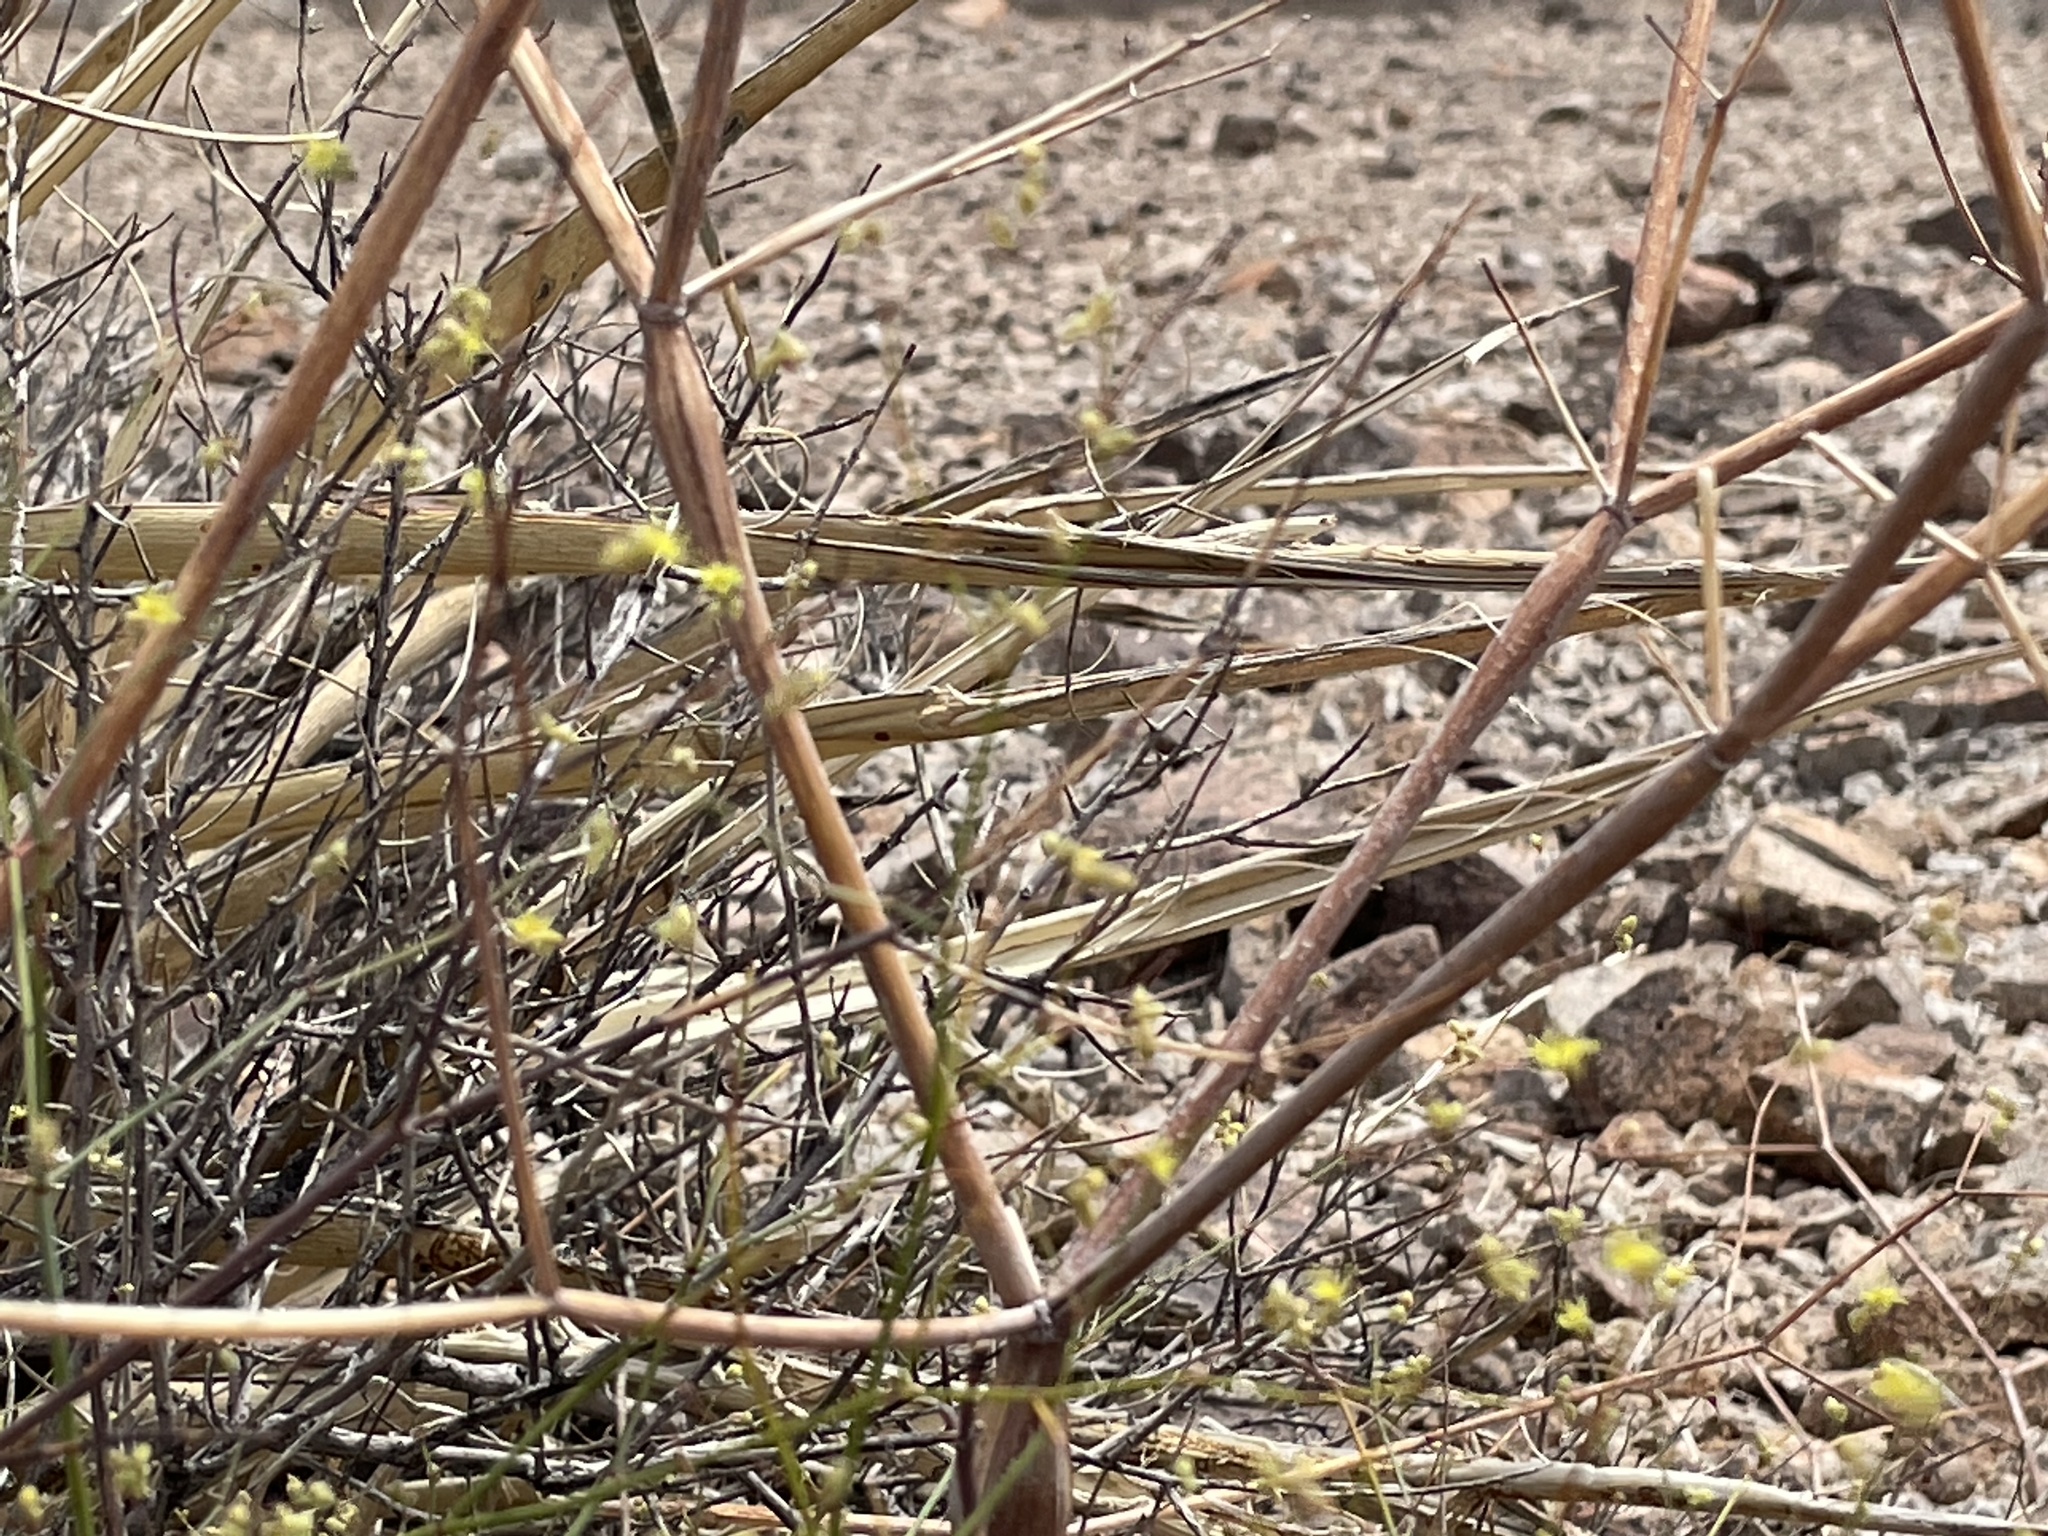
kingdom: Plantae
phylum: Tracheophyta
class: Magnoliopsida
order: Caryophyllales
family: Polygonaceae
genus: Eriogonum
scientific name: Eriogonum inflatum
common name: Desert trumpet
